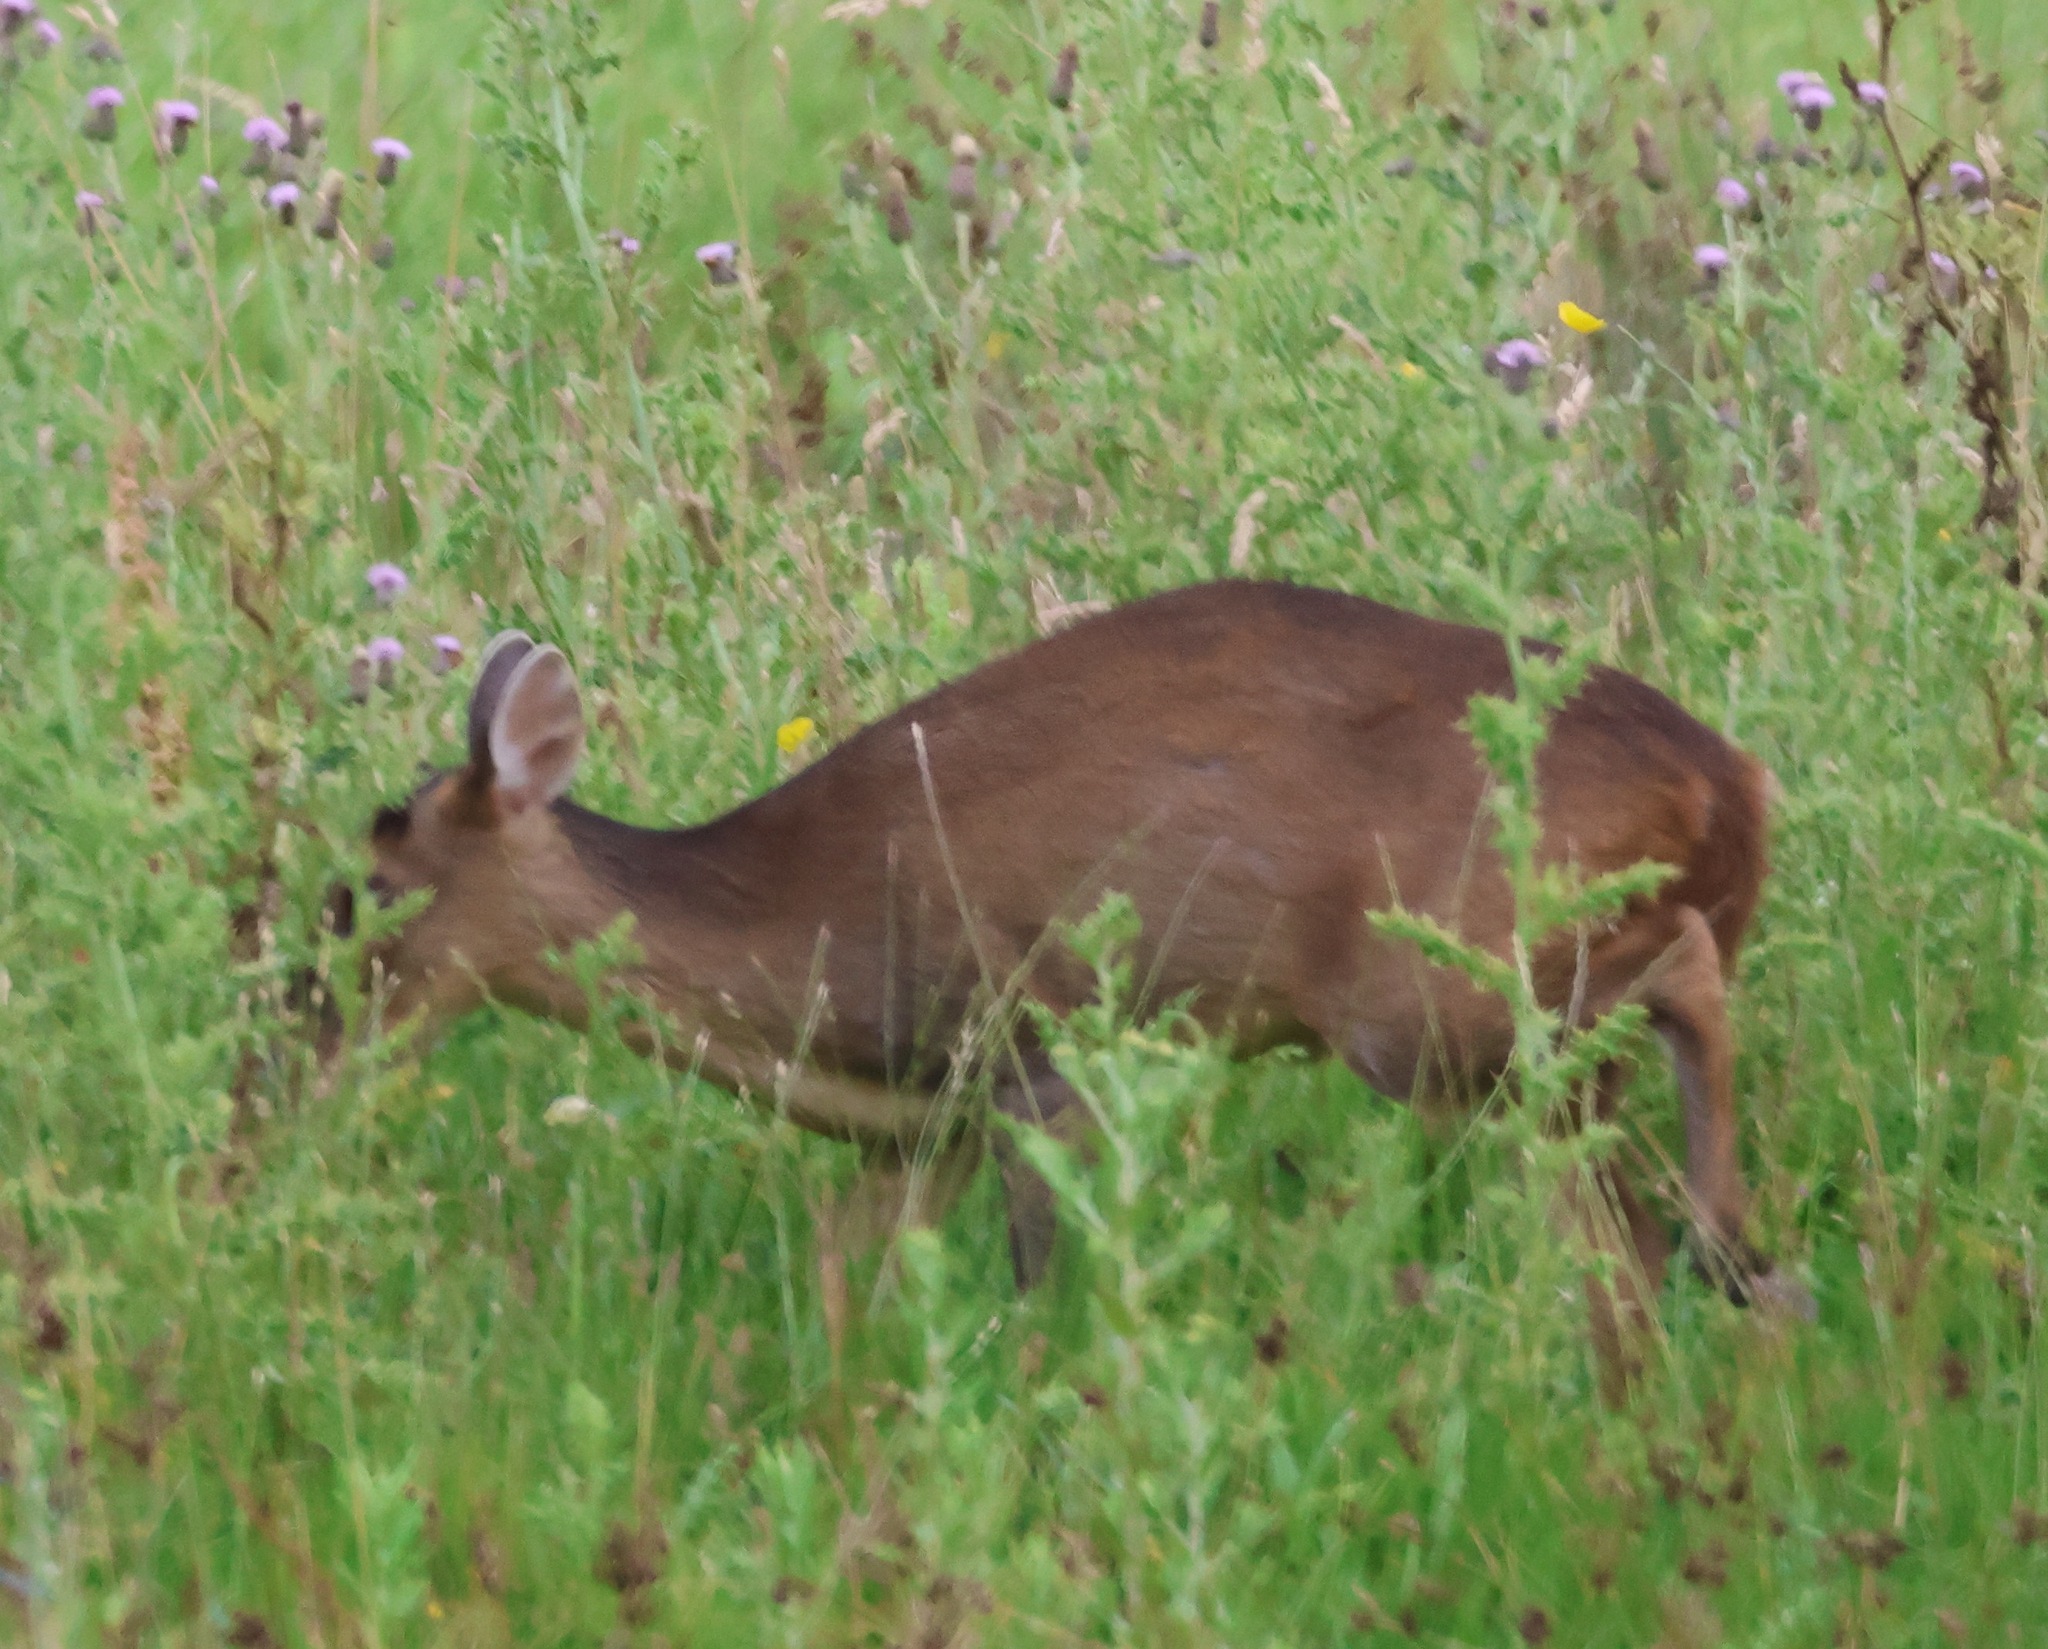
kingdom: Animalia
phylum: Chordata
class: Mammalia
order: Artiodactyla
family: Cervidae
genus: Muntiacus
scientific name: Muntiacus reevesi
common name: Reeves' muntjac
